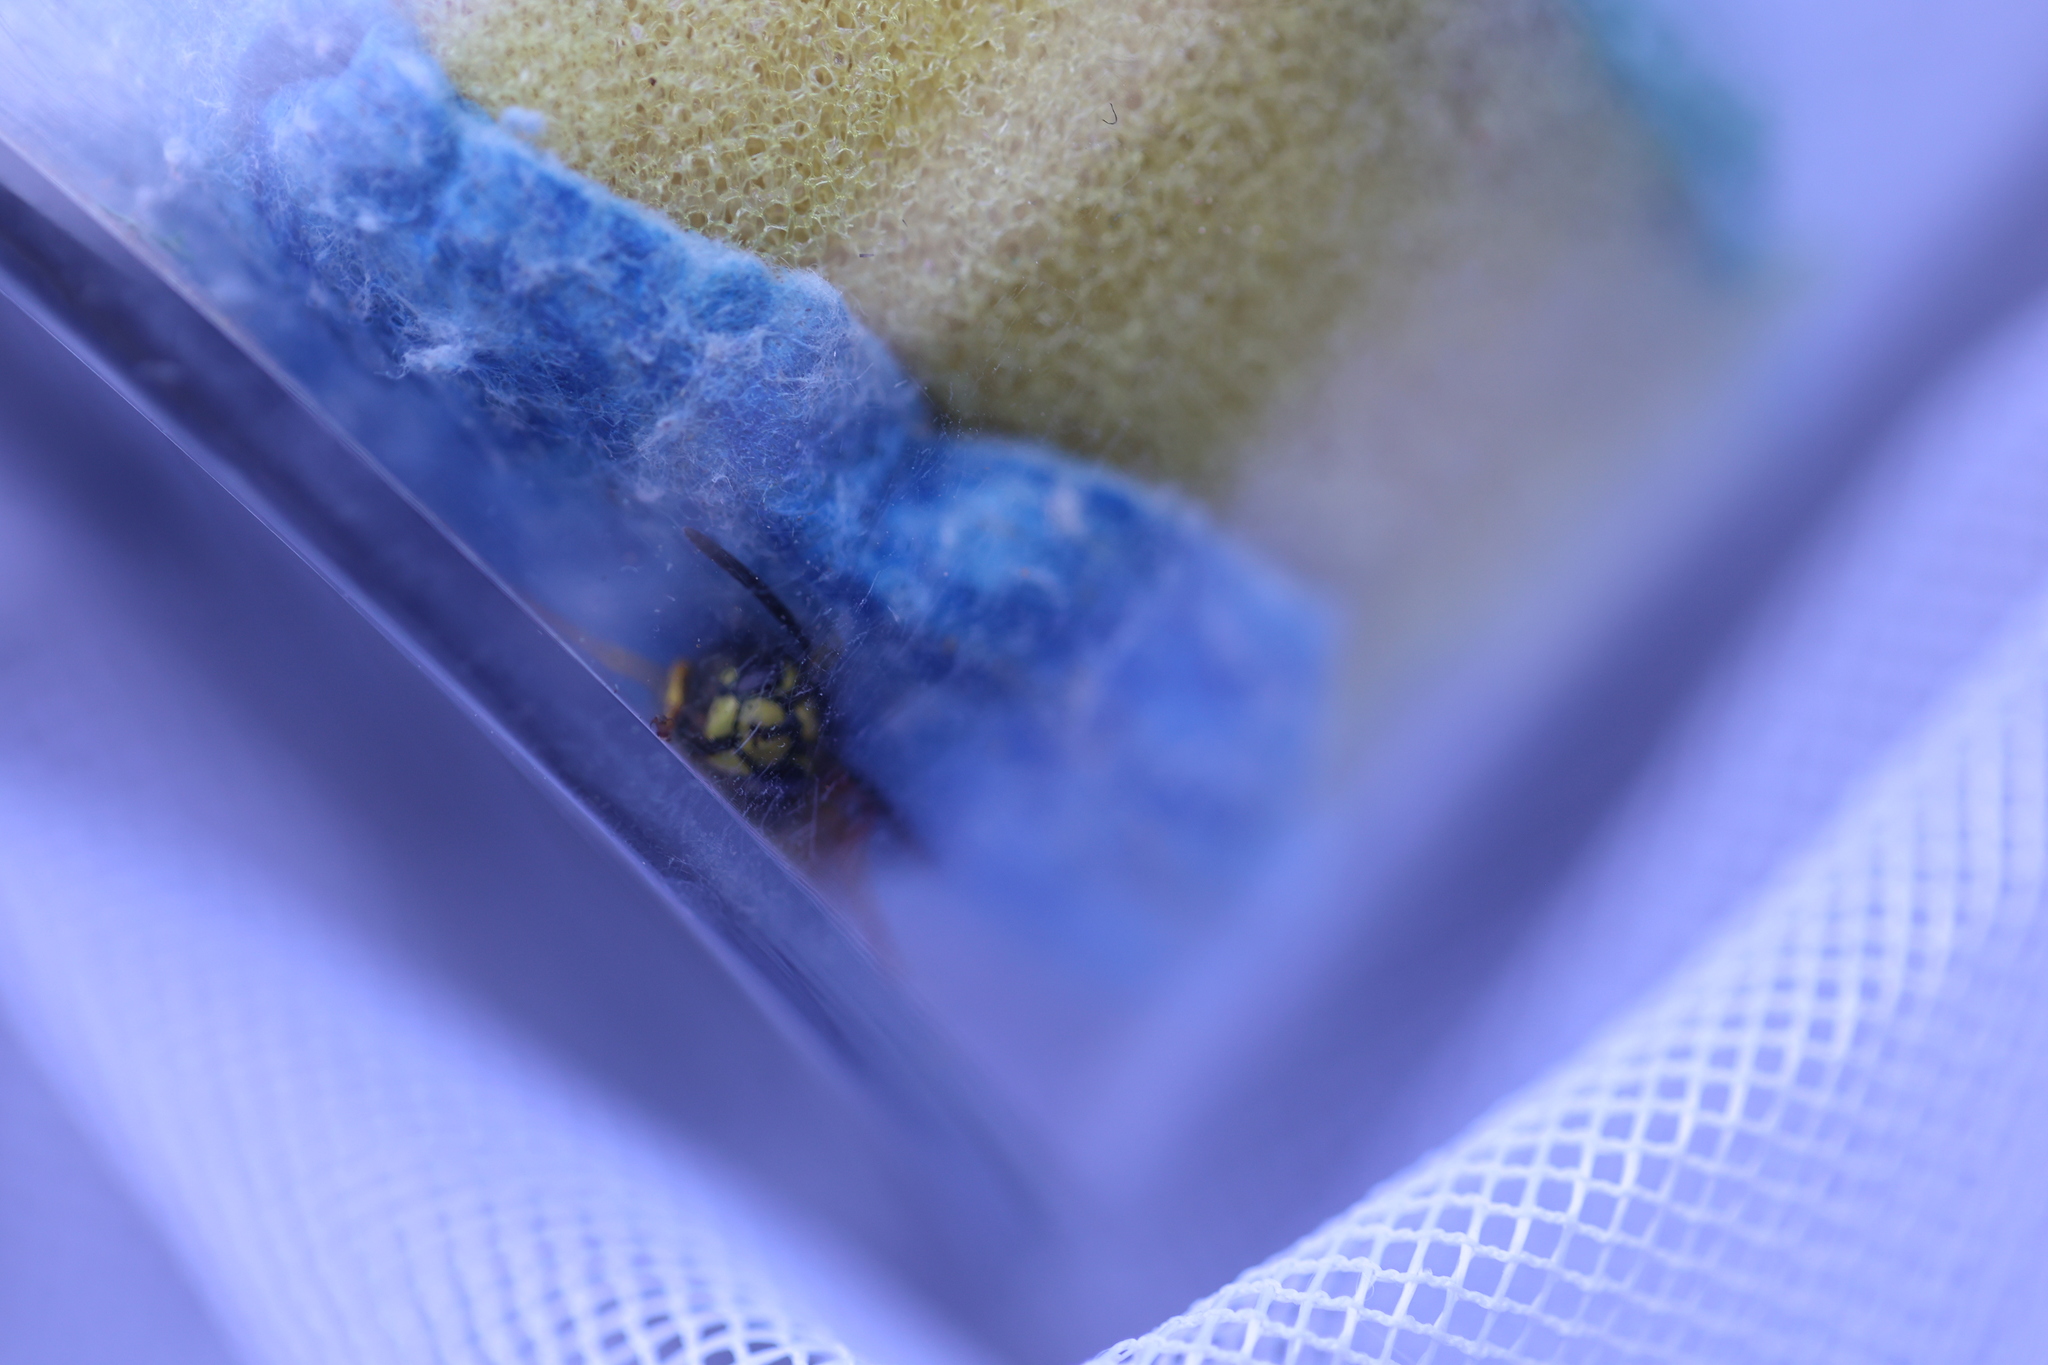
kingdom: Animalia
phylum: Arthropoda
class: Insecta
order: Hymenoptera
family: Vespidae
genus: Vespula
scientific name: Vespula vulgaris
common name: Common wasp
